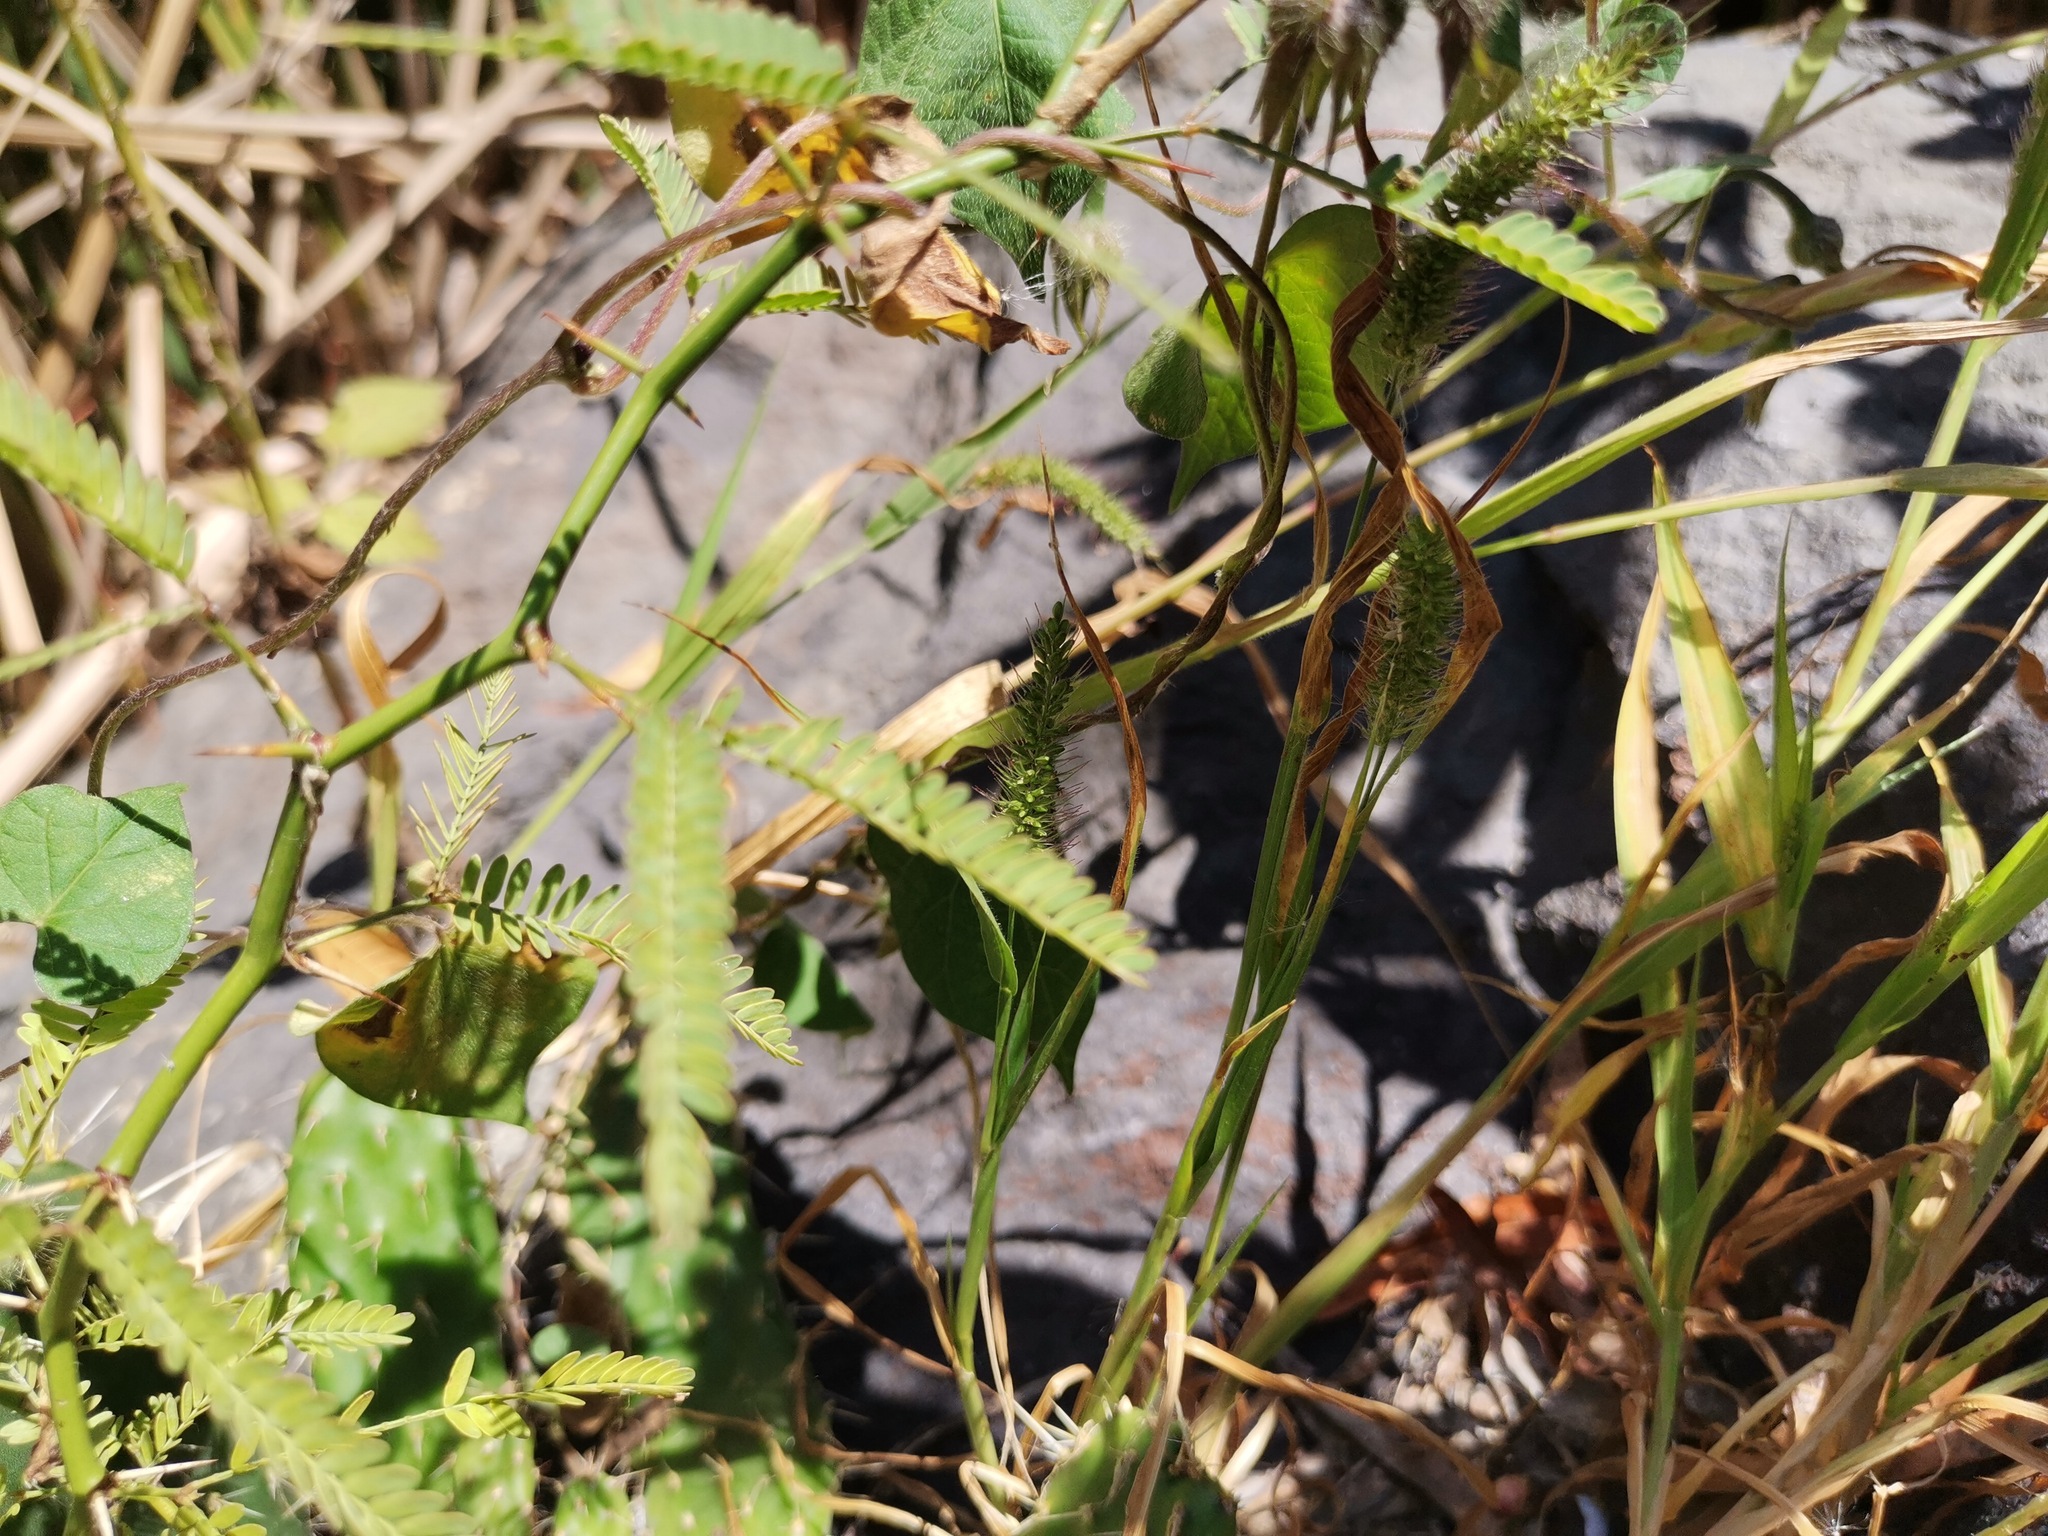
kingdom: Plantae
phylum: Tracheophyta
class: Magnoliopsida
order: Fabales
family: Fabaceae
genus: Prosopis
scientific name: Prosopis laevigata
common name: Smooth mesquite
